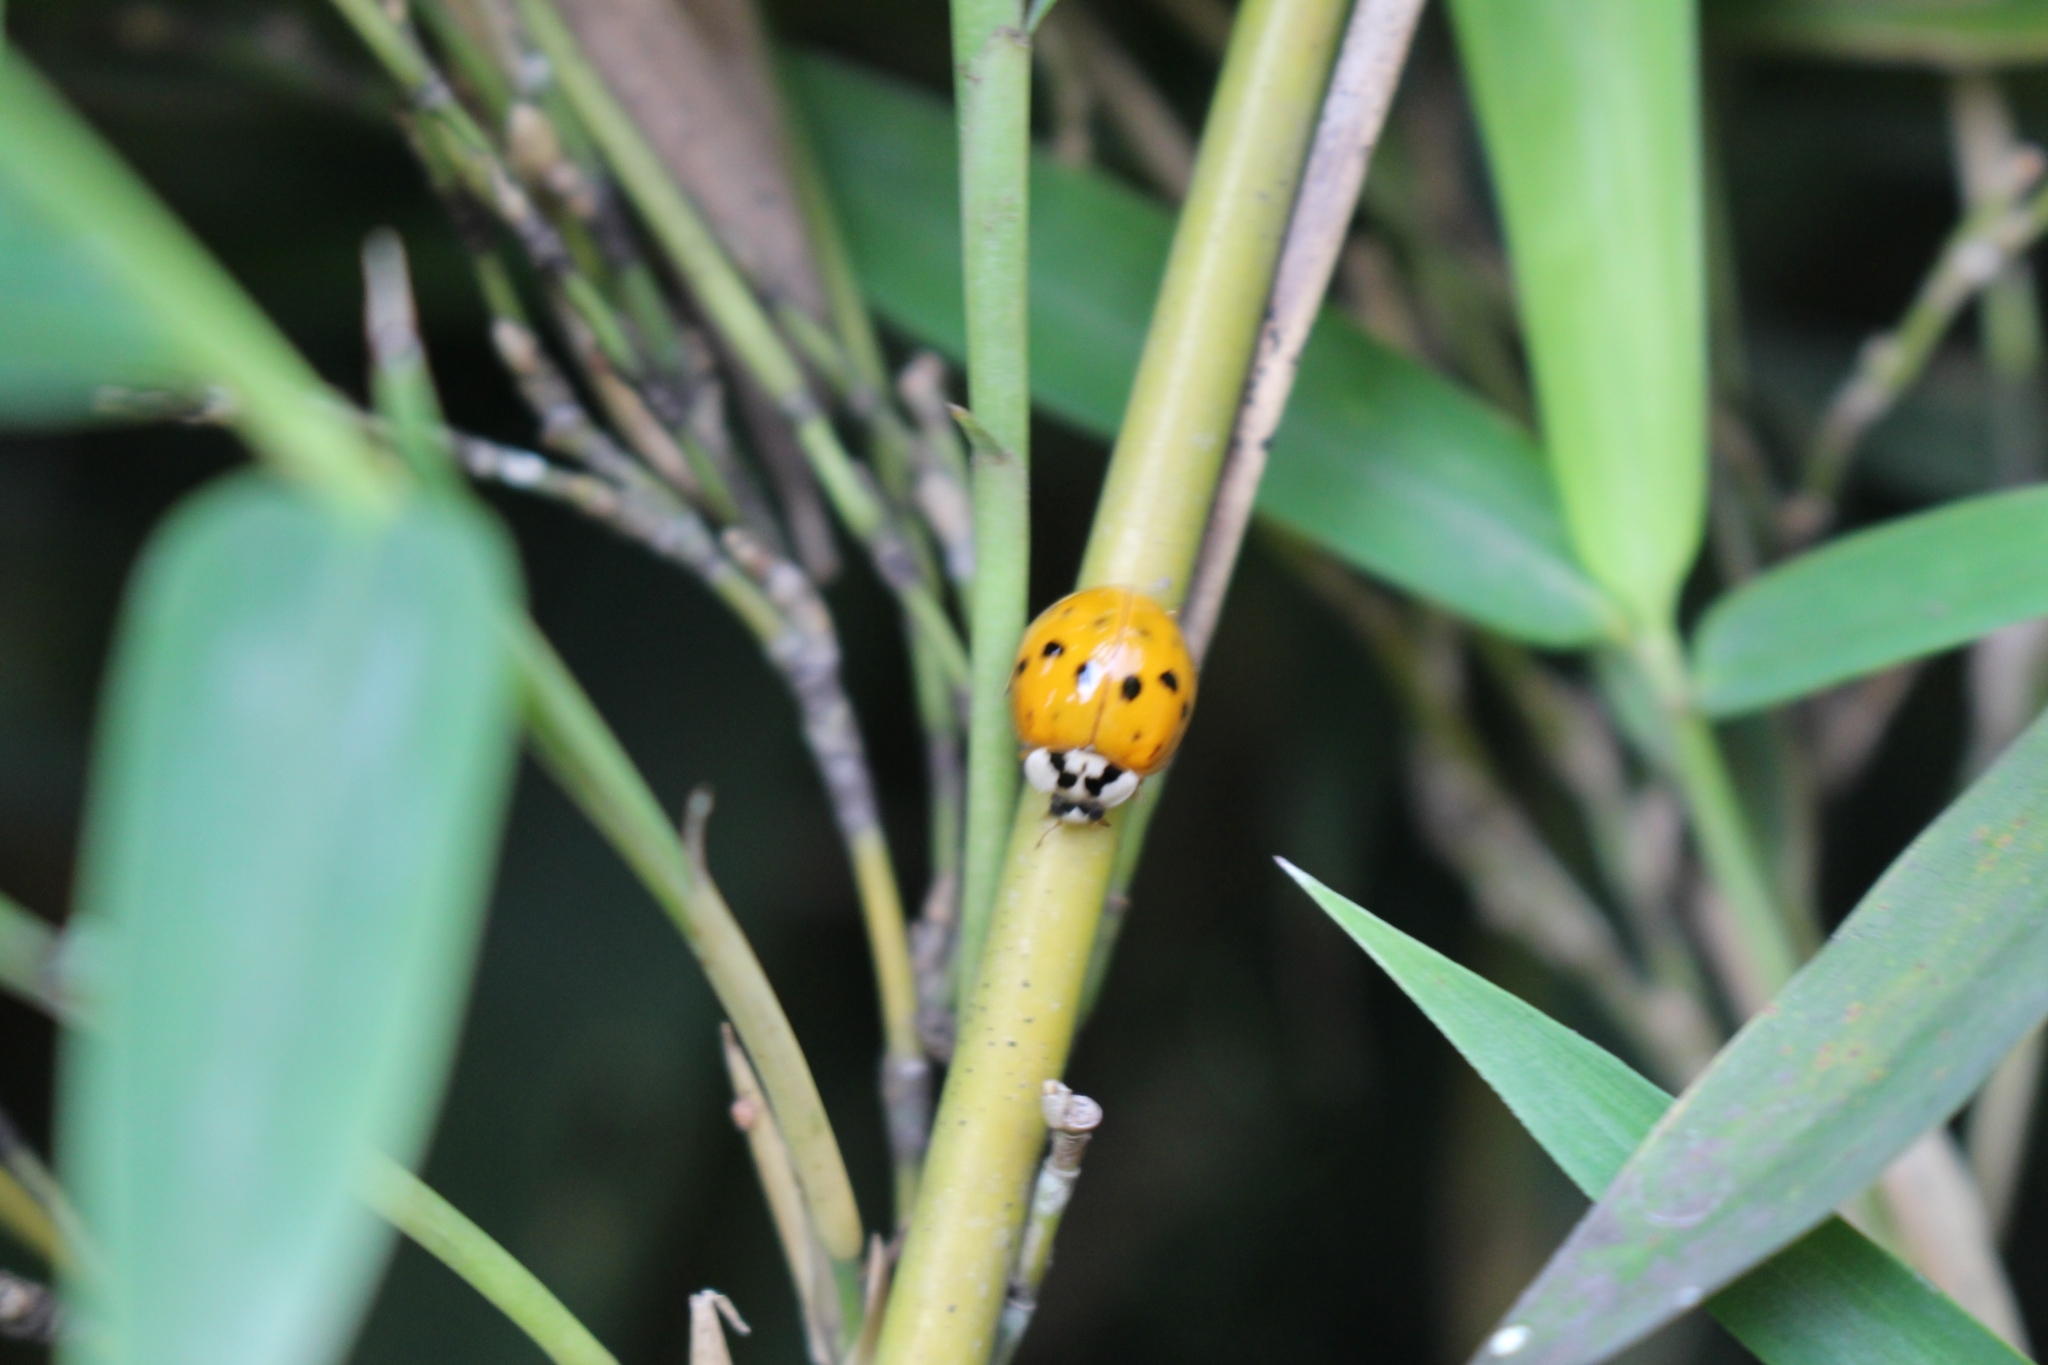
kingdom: Animalia
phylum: Arthropoda
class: Insecta
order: Coleoptera
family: Coccinellidae
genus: Harmonia
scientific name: Harmonia axyridis
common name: Harlequin ladybird
